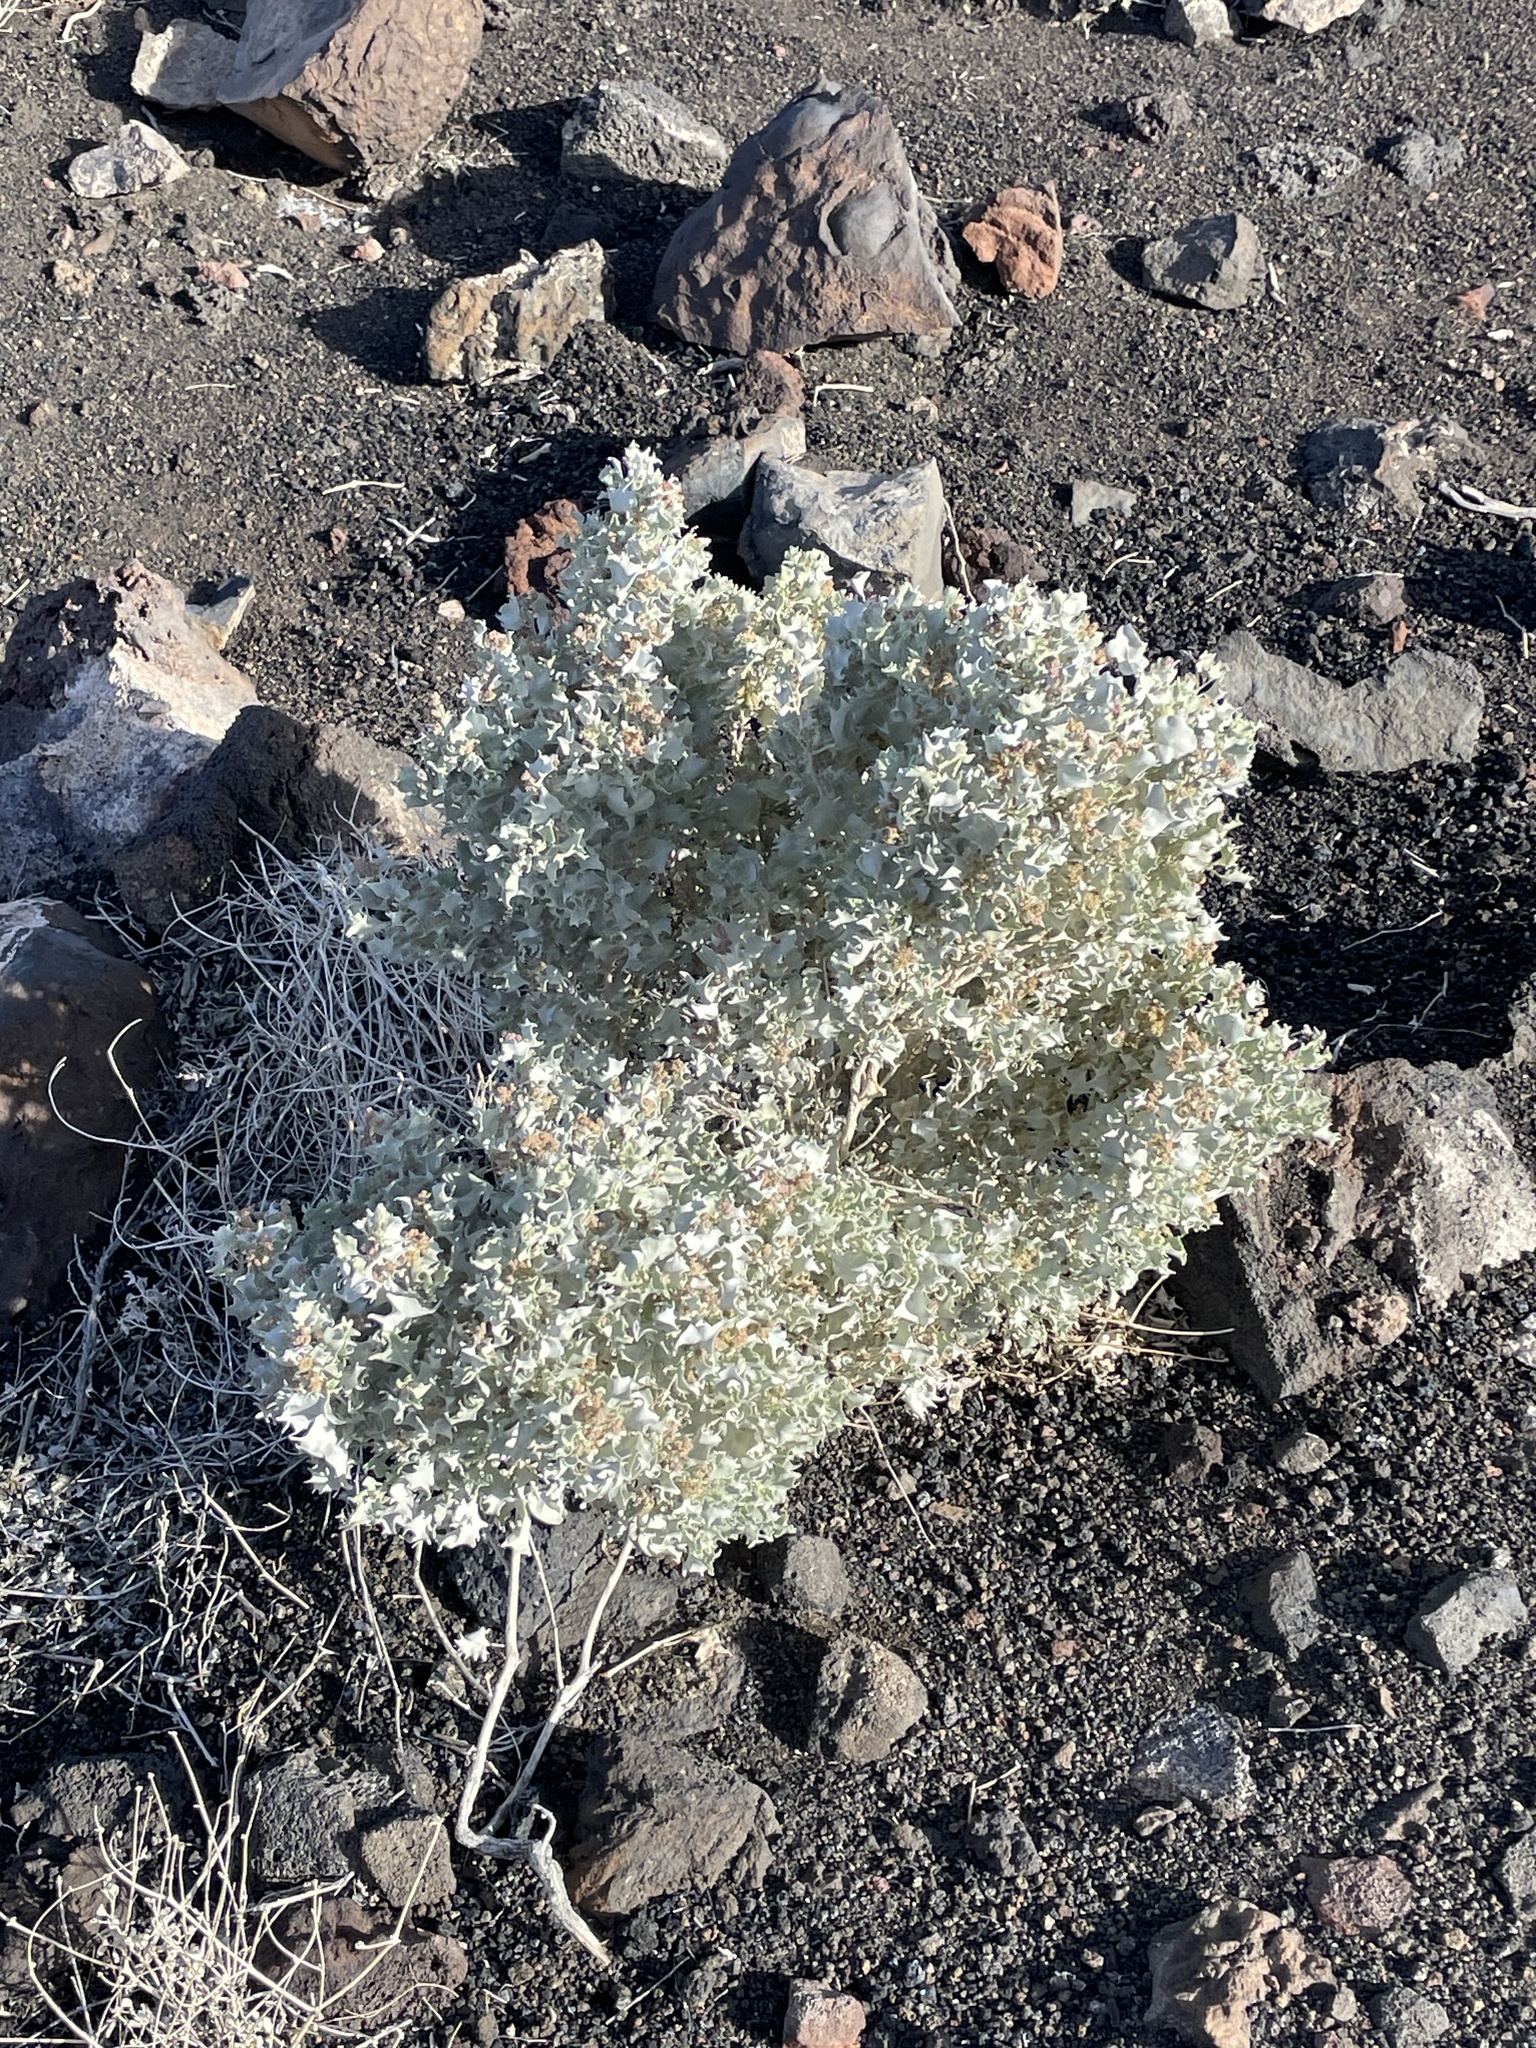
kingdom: Plantae
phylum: Tracheophyta
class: Magnoliopsida
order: Caryophyllales
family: Amaranthaceae
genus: Atriplex
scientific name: Atriplex hymenelytra
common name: Desert-holly
